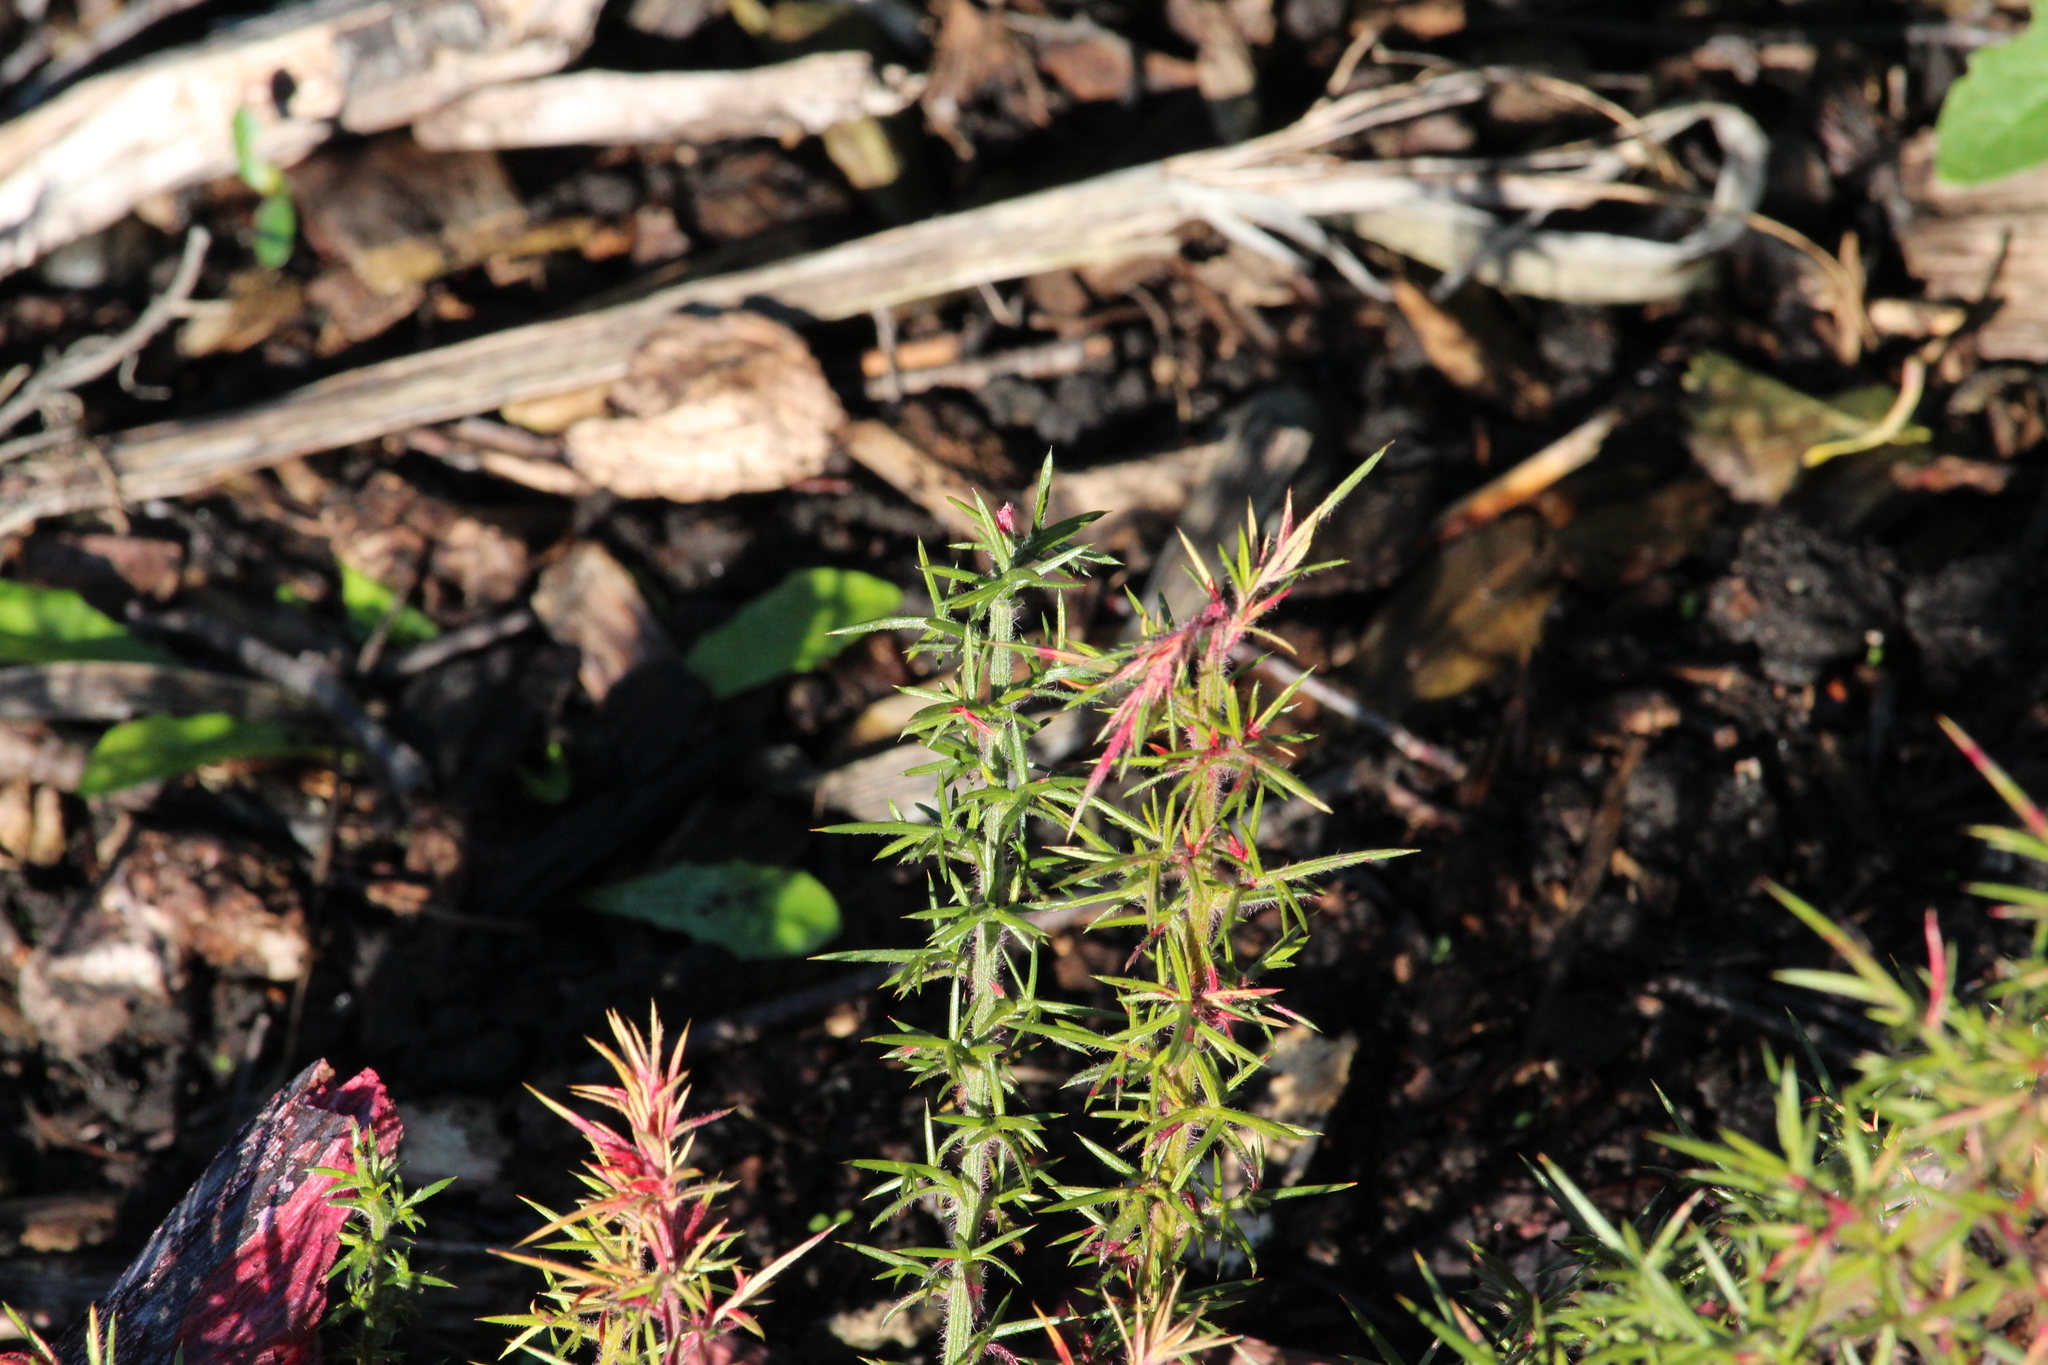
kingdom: Plantae
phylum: Tracheophyta
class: Magnoliopsida
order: Fabales
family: Fabaceae
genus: Ulex
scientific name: Ulex europaeus
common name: Common gorse
